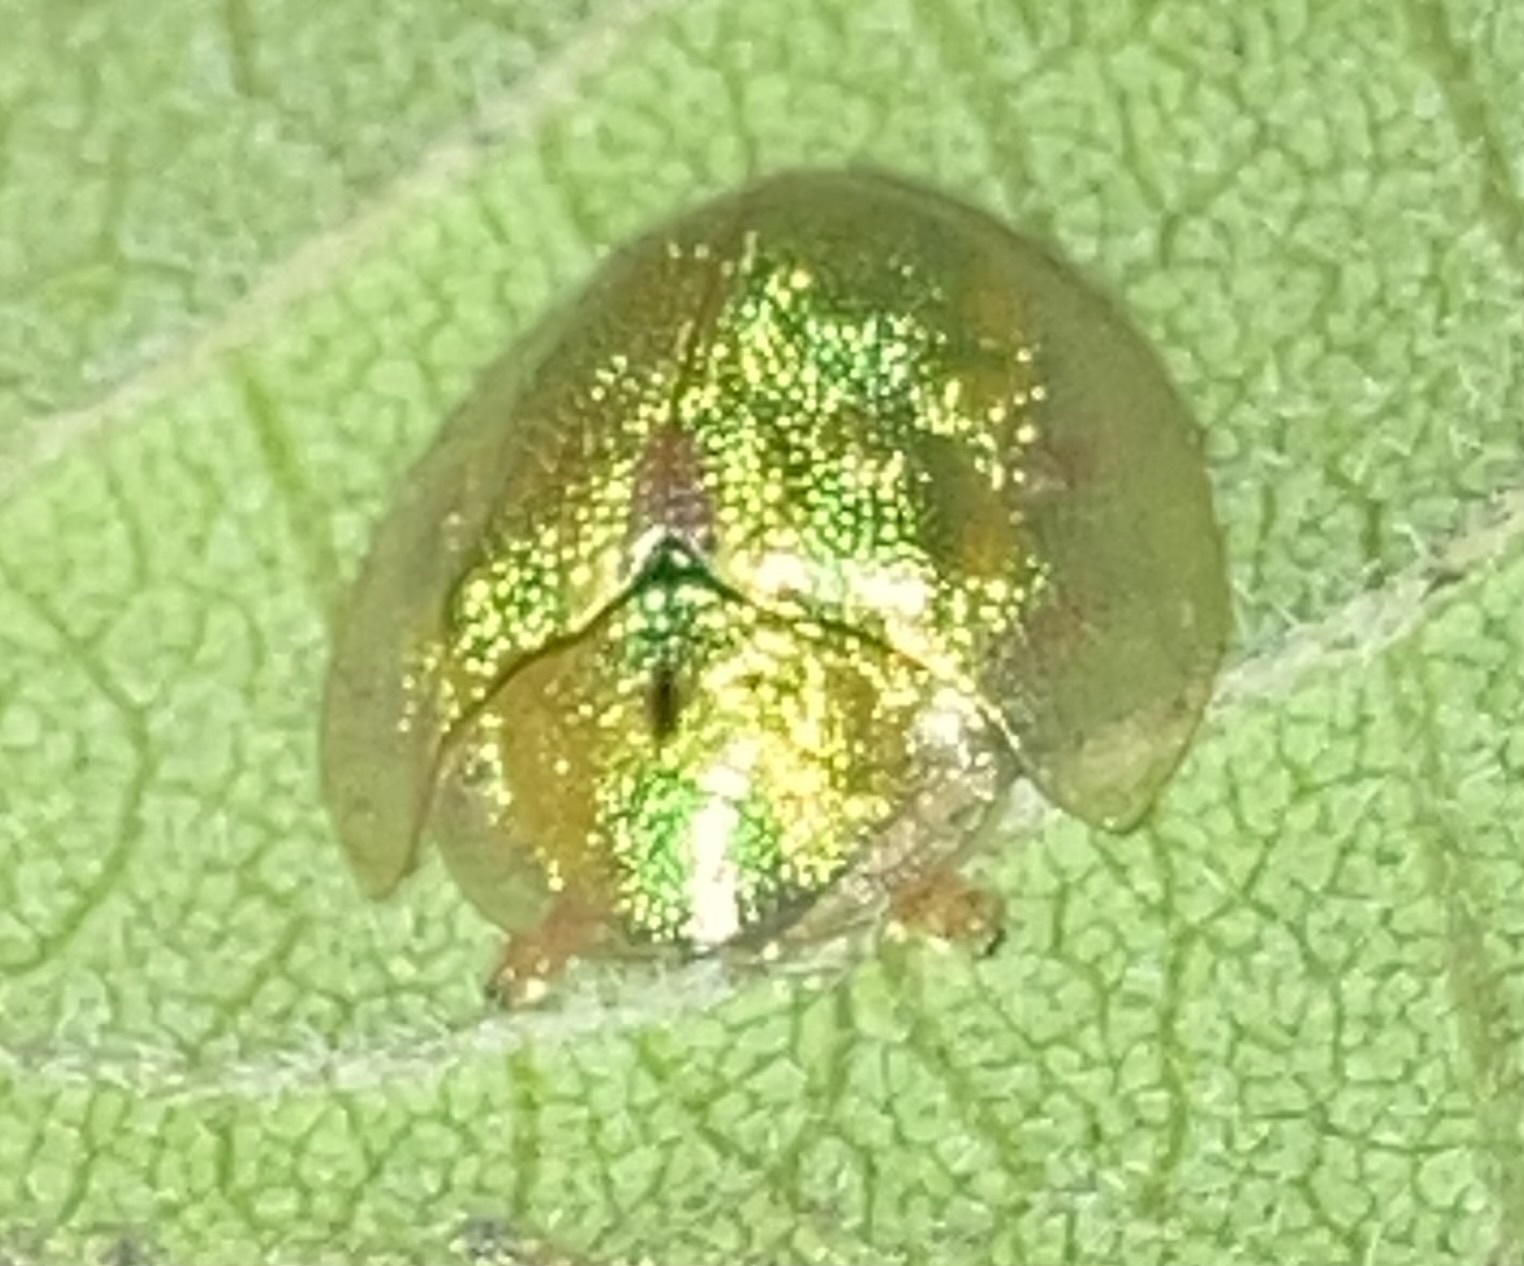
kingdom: Animalia
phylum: Arthropoda
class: Insecta
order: Coleoptera
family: Chrysomelidae
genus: Eurypepla
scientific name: Eurypepla calochroma
